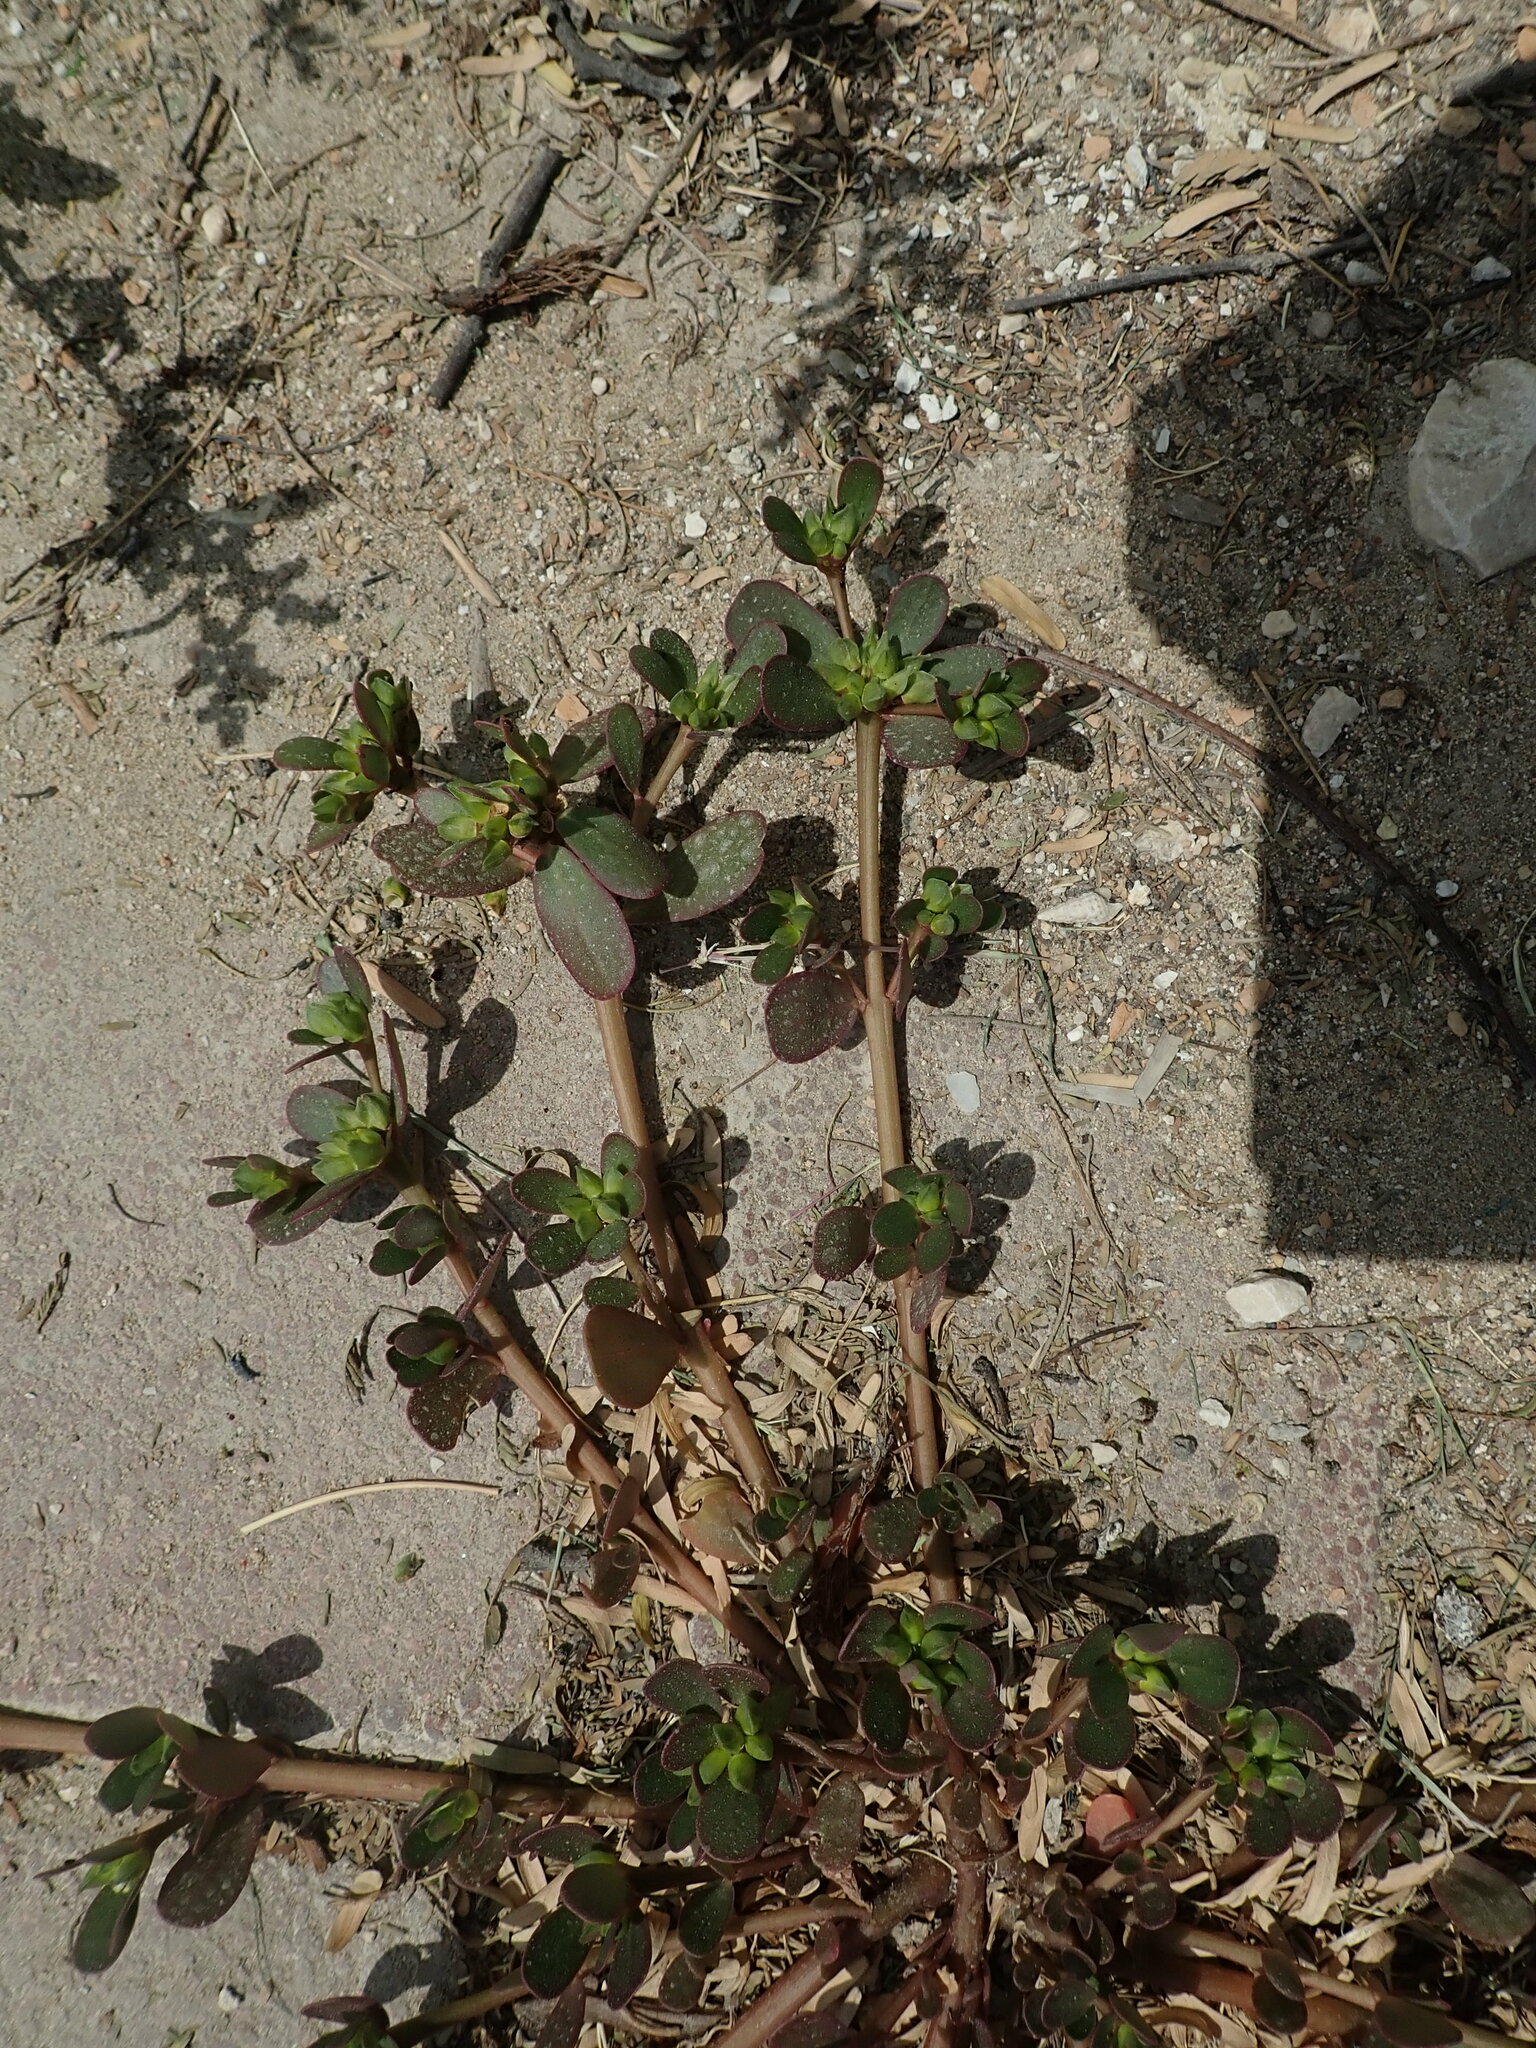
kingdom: Plantae
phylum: Tracheophyta
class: Magnoliopsida
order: Caryophyllales
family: Portulacaceae
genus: Portulaca
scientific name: Portulaca oleracea
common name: Common purslane
